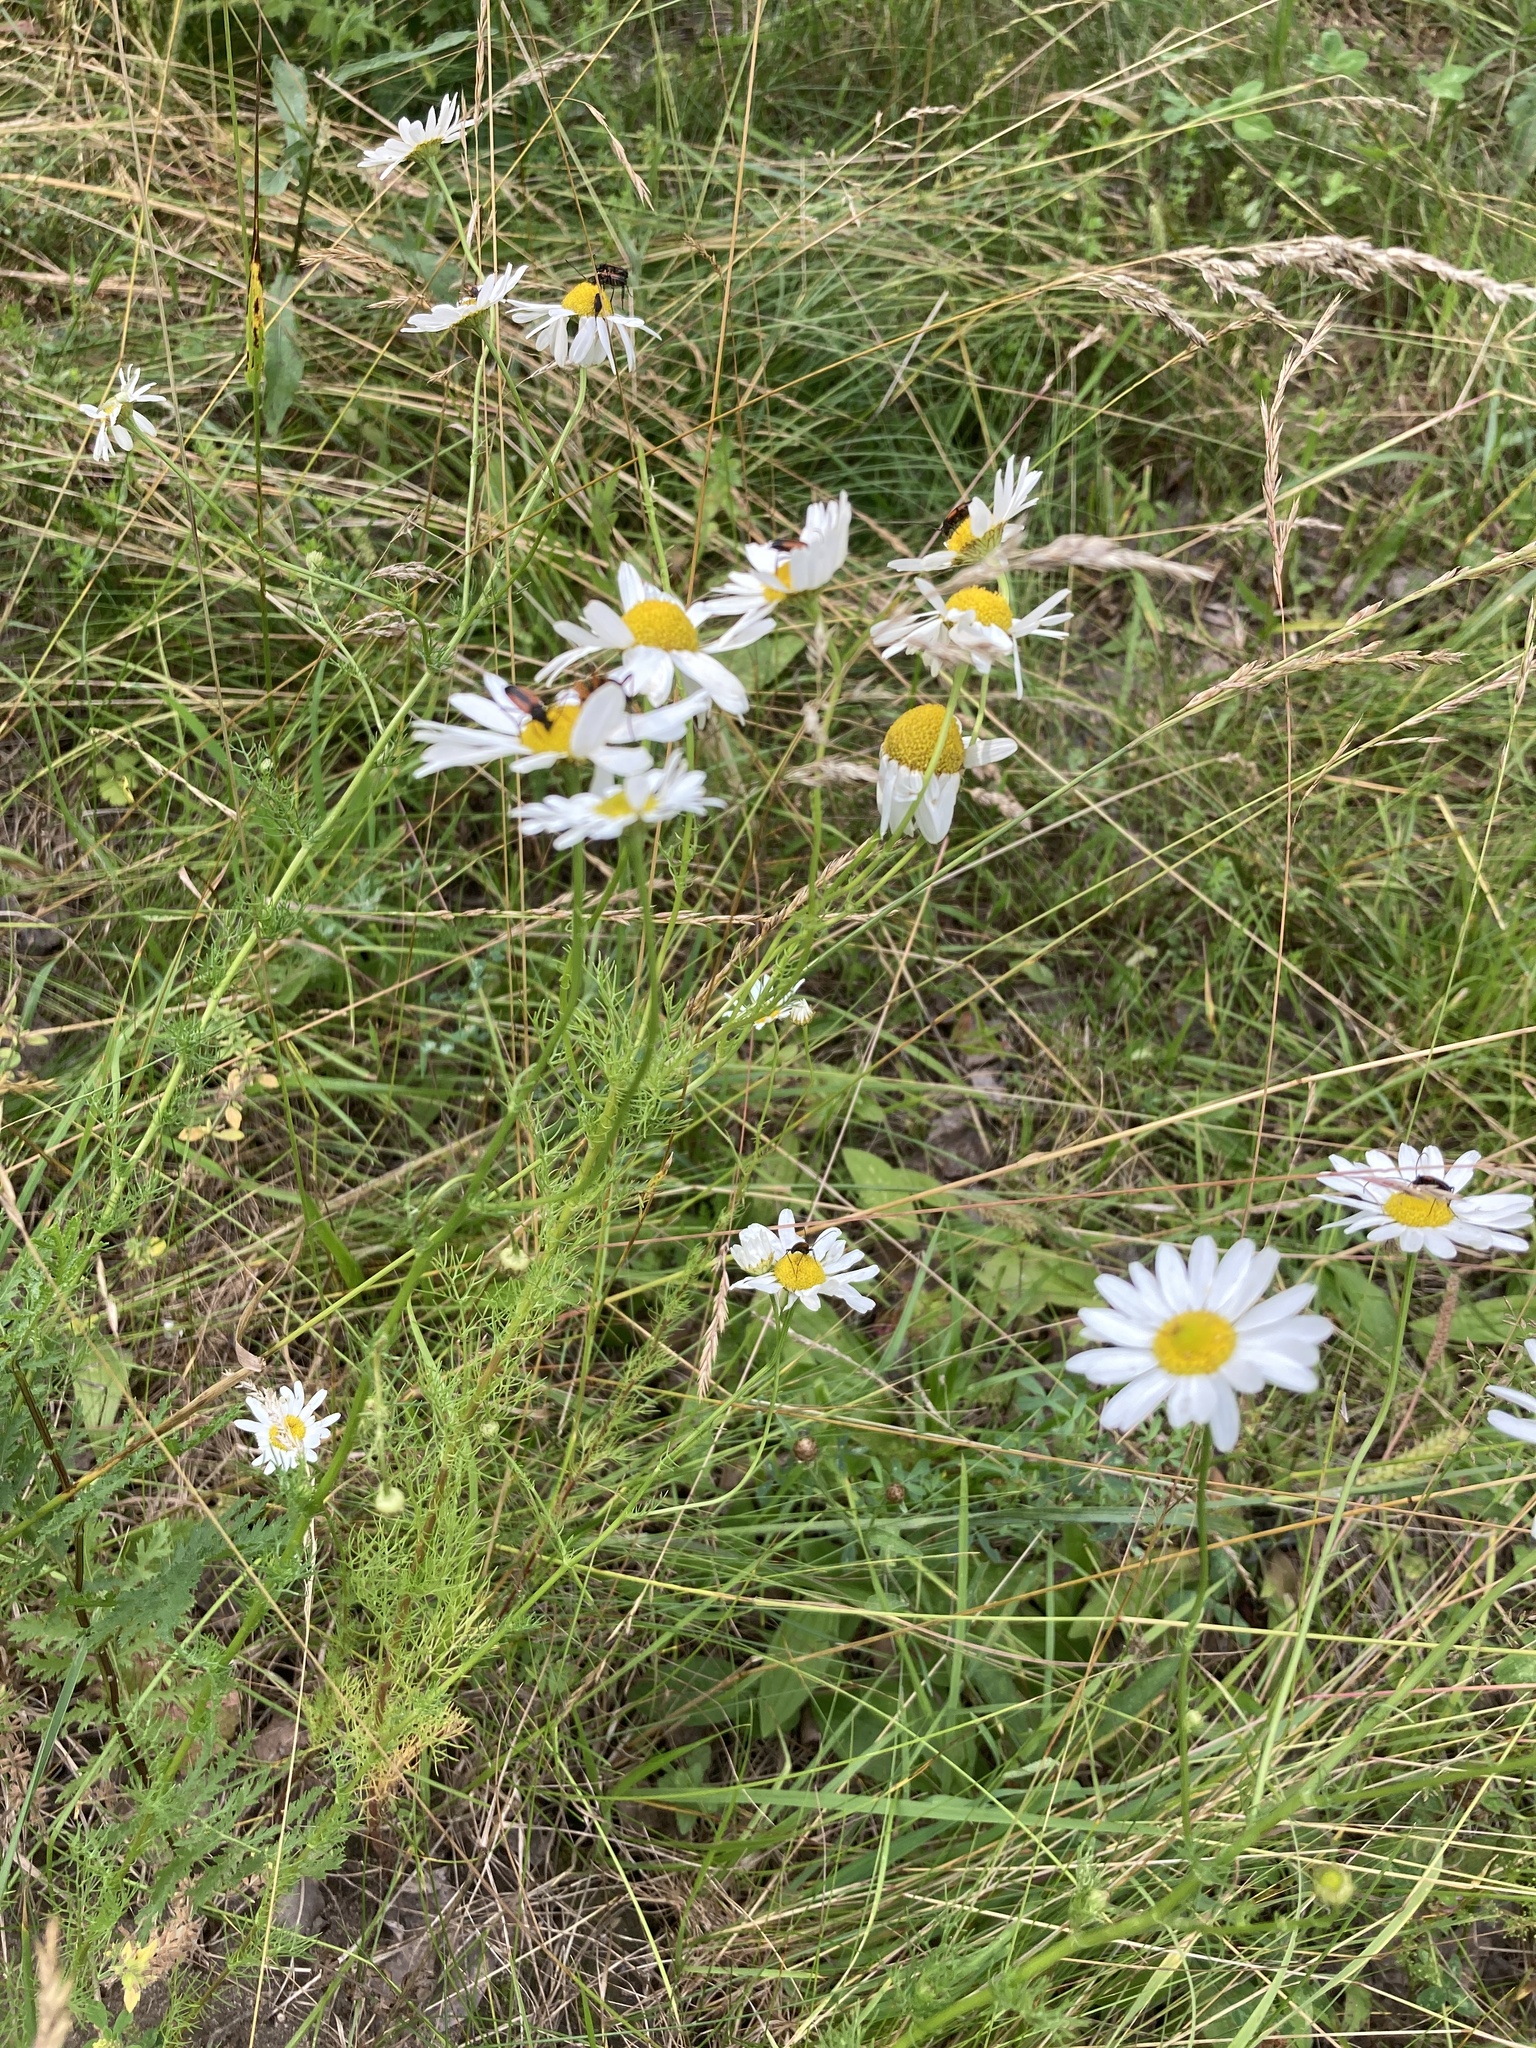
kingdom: Plantae
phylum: Tracheophyta
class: Magnoliopsida
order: Asterales
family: Asteraceae
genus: Tripleurospermum
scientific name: Tripleurospermum inodorum
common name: Scentless mayweed
